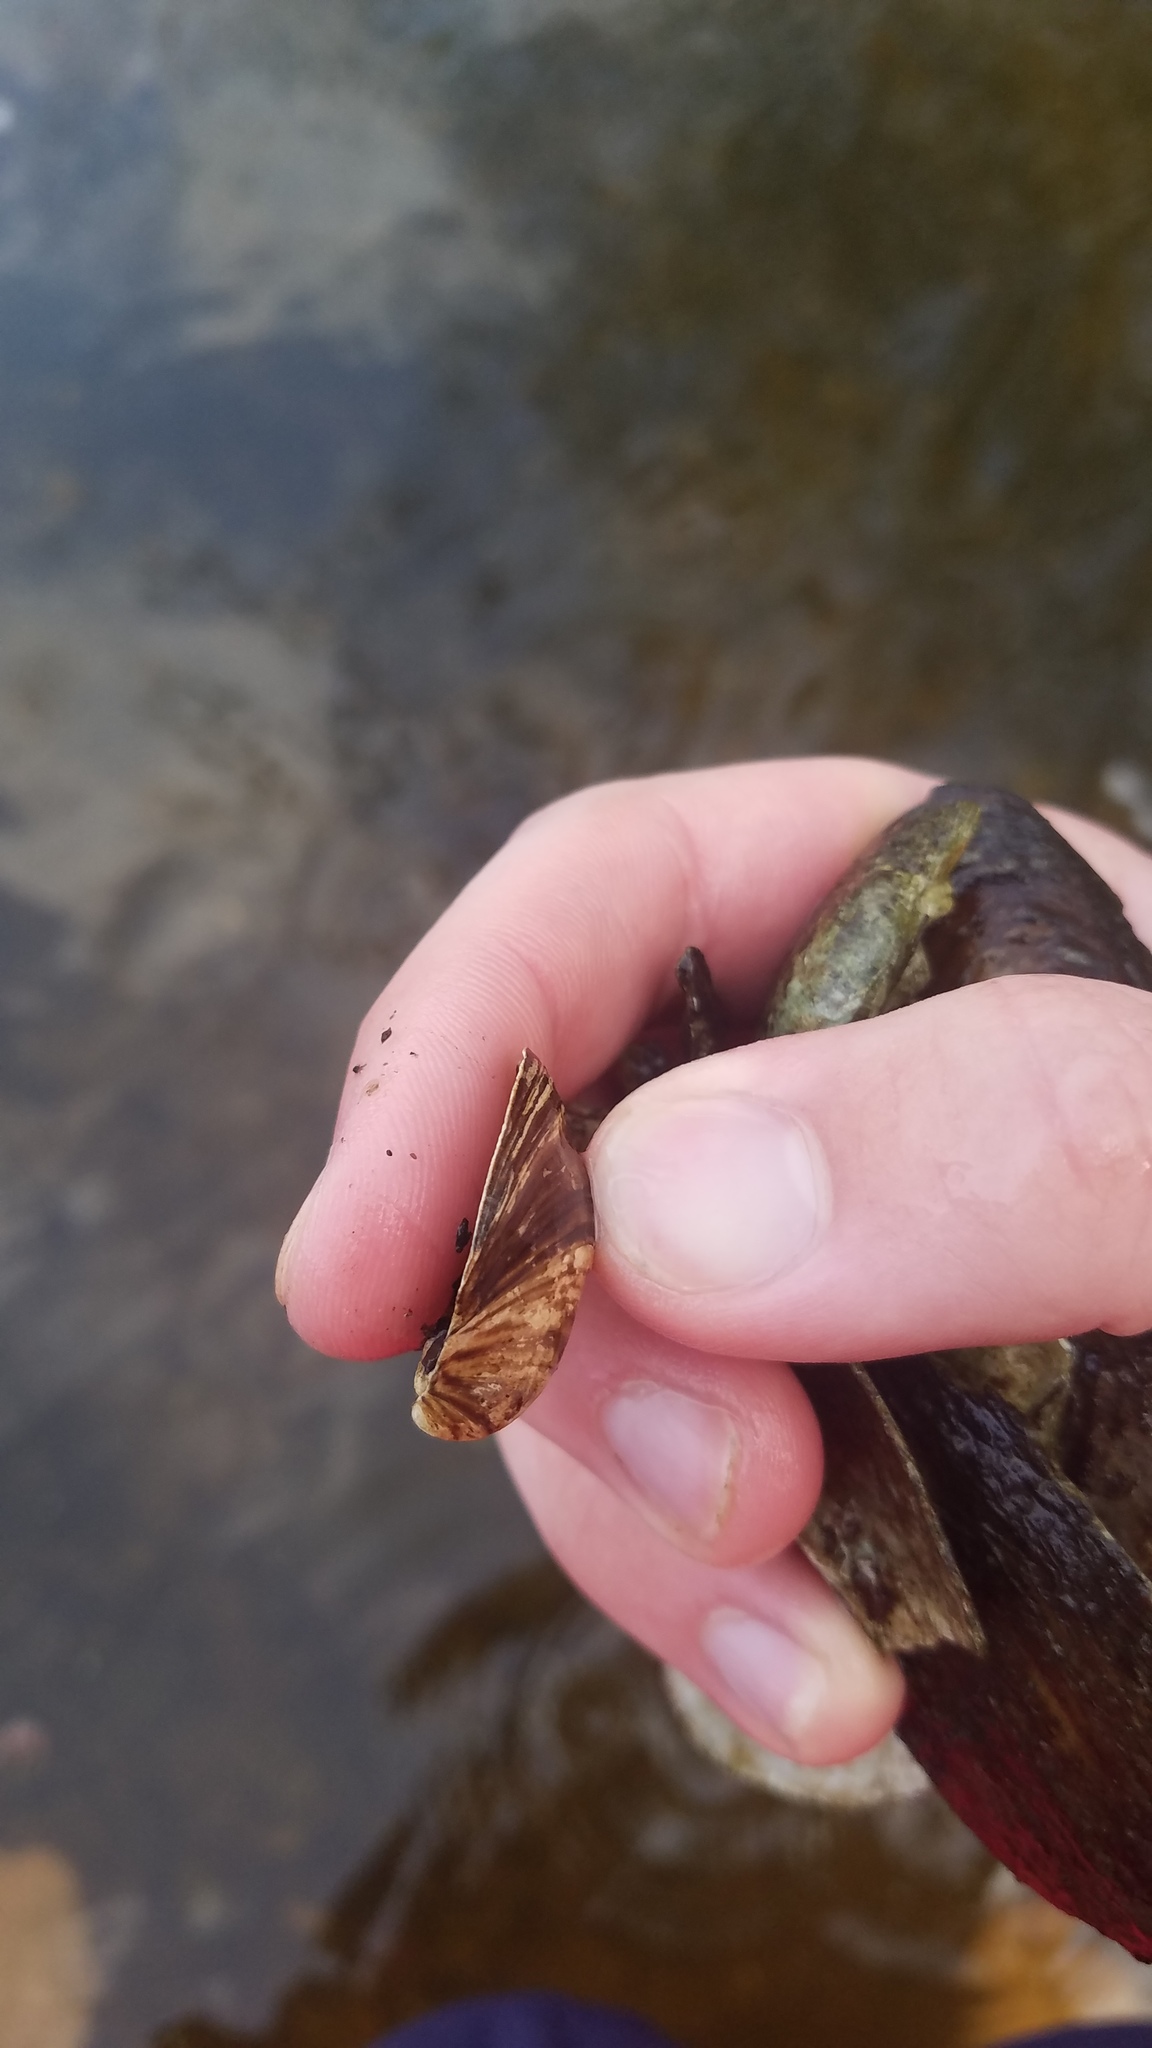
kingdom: Animalia
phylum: Mollusca
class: Bivalvia
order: Myida
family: Dreissenidae
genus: Dreissena
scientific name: Dreissena polymorpha
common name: Zebra mussel
